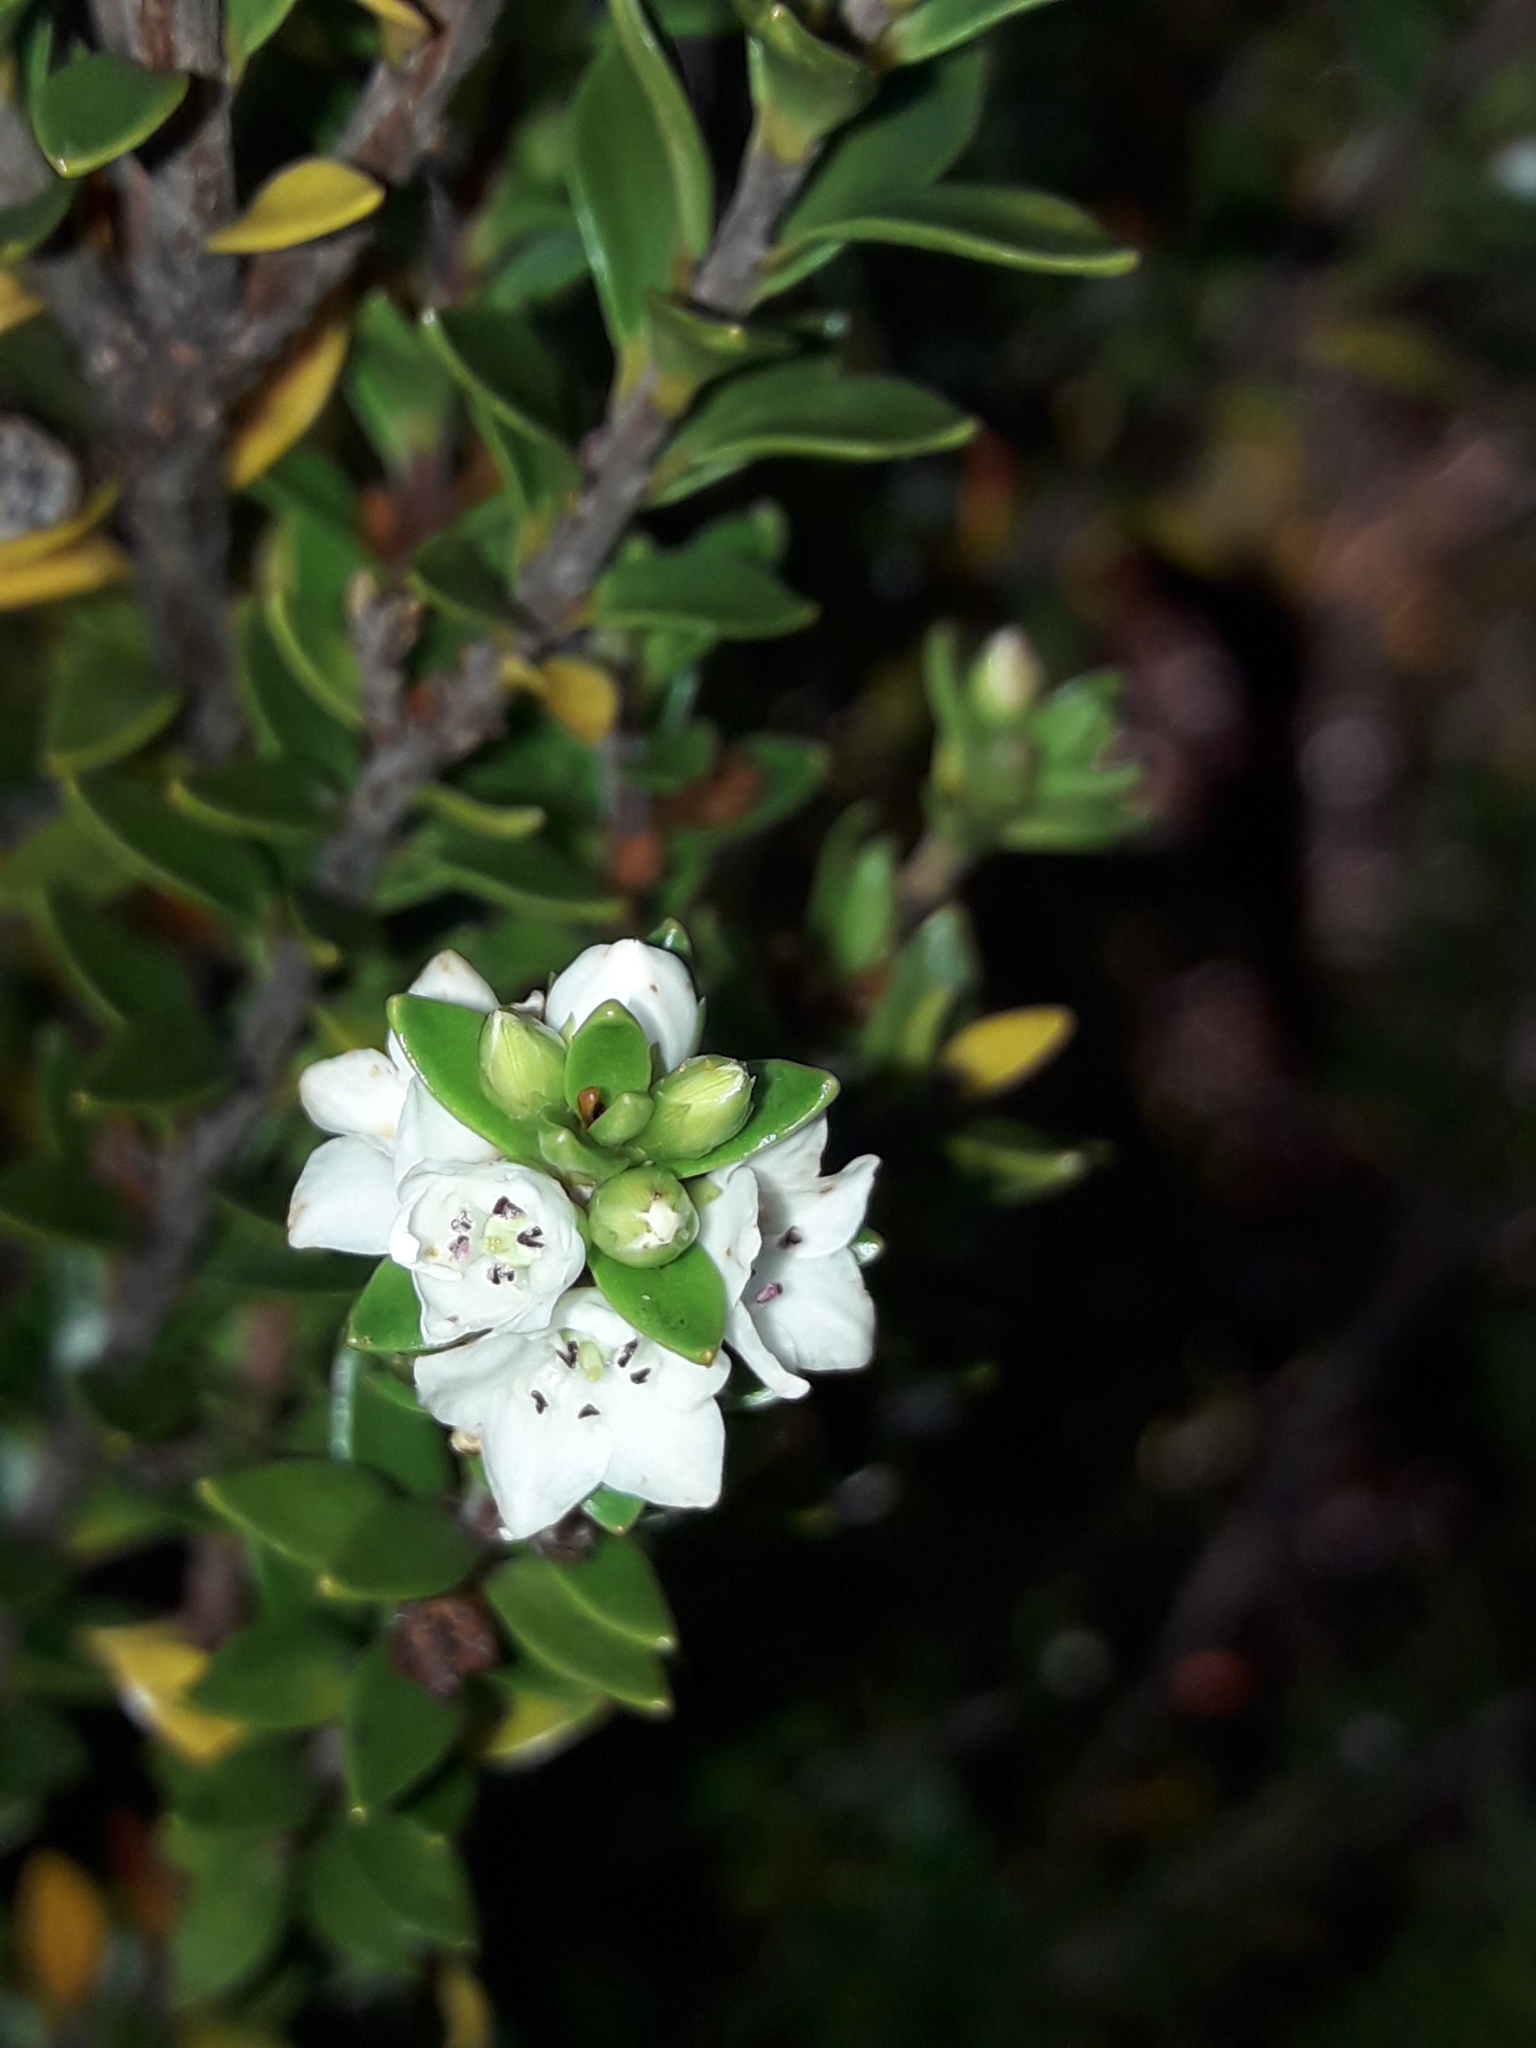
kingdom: Plantae
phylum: Tracheophyta
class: Magnoliopsida
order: Ericales
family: Ericaceae
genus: Epacris
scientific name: Epacris pauciflora
